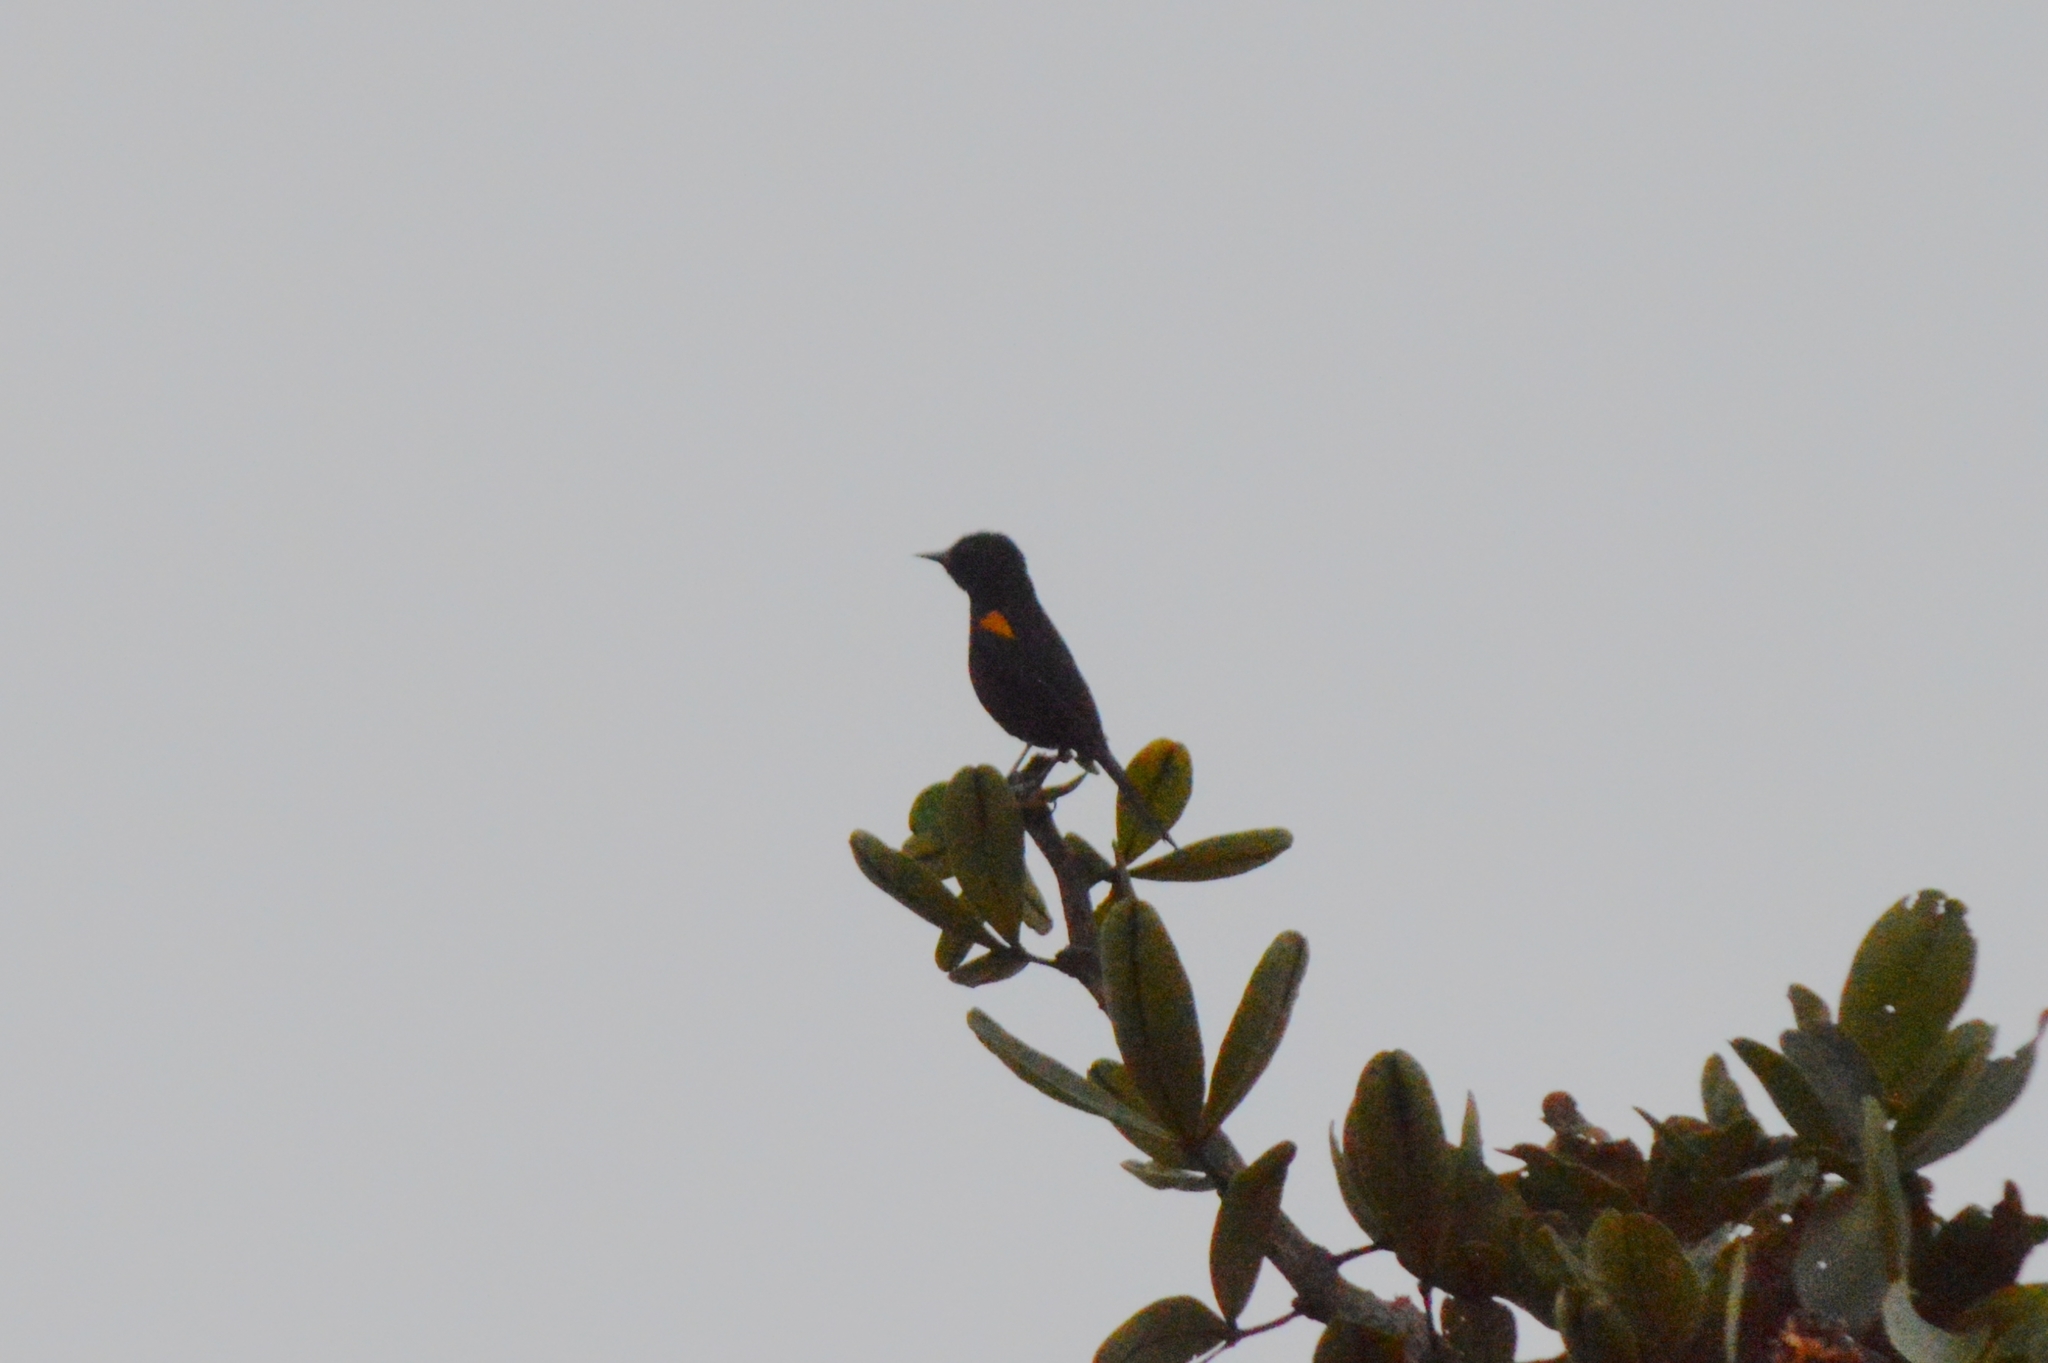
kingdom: Animalia
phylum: Chordata
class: Aves
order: Passeriformes
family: Icteridae
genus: Icterus
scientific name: Icterus cayanensis
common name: Epaulet oriole
